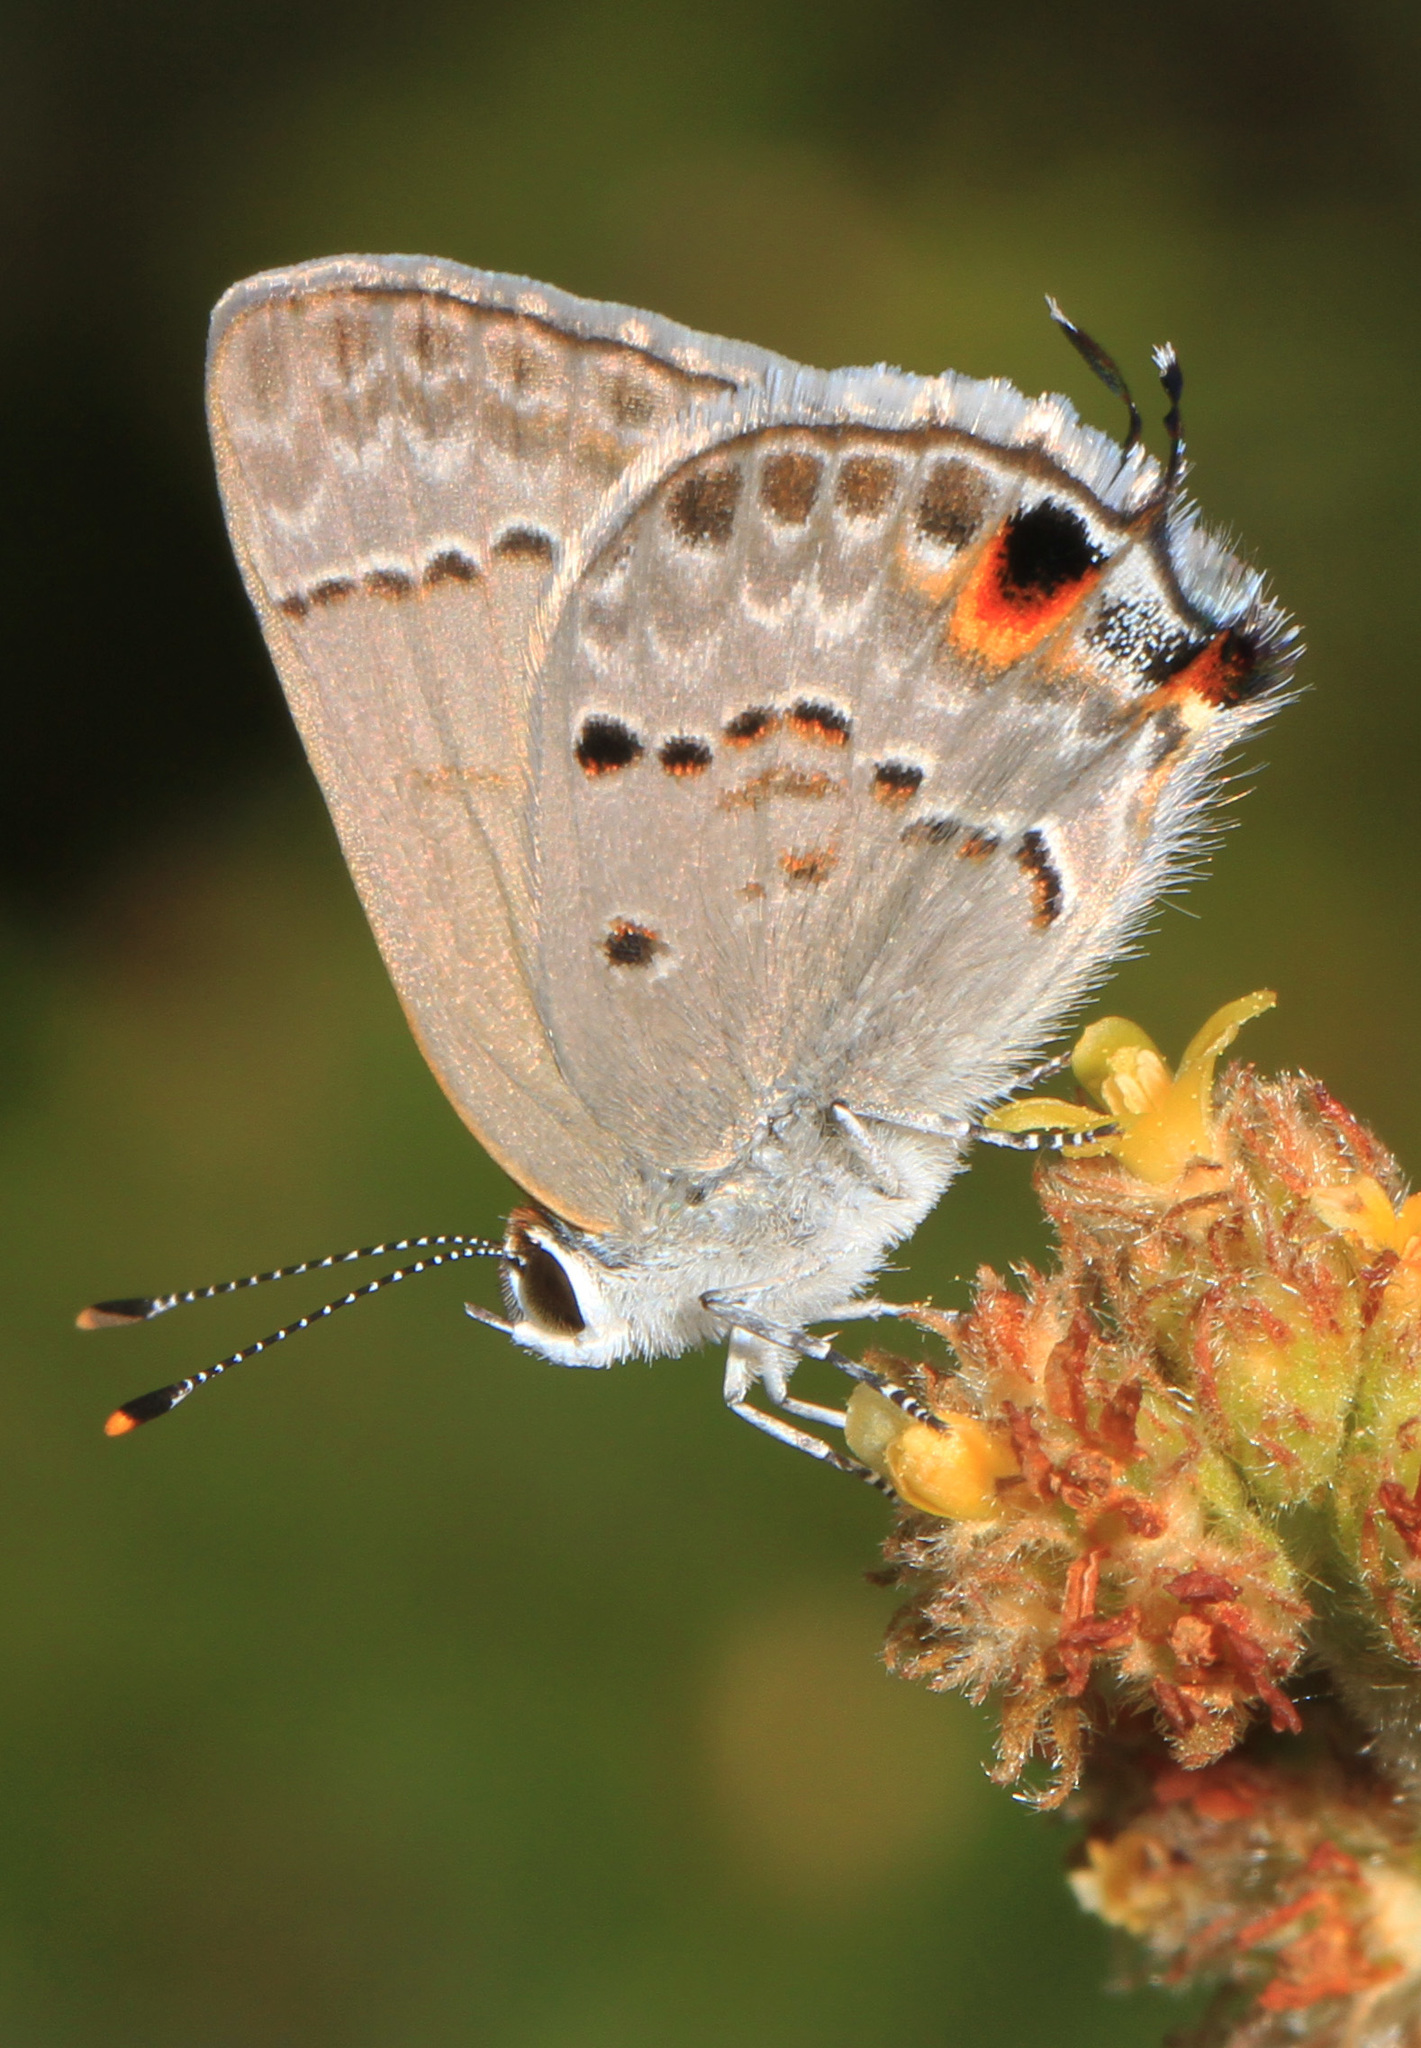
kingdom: Animalia
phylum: Arthropoda
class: Insecta
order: Lepidoptera
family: Lycaenidae
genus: Callicista
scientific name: Callicista columella
